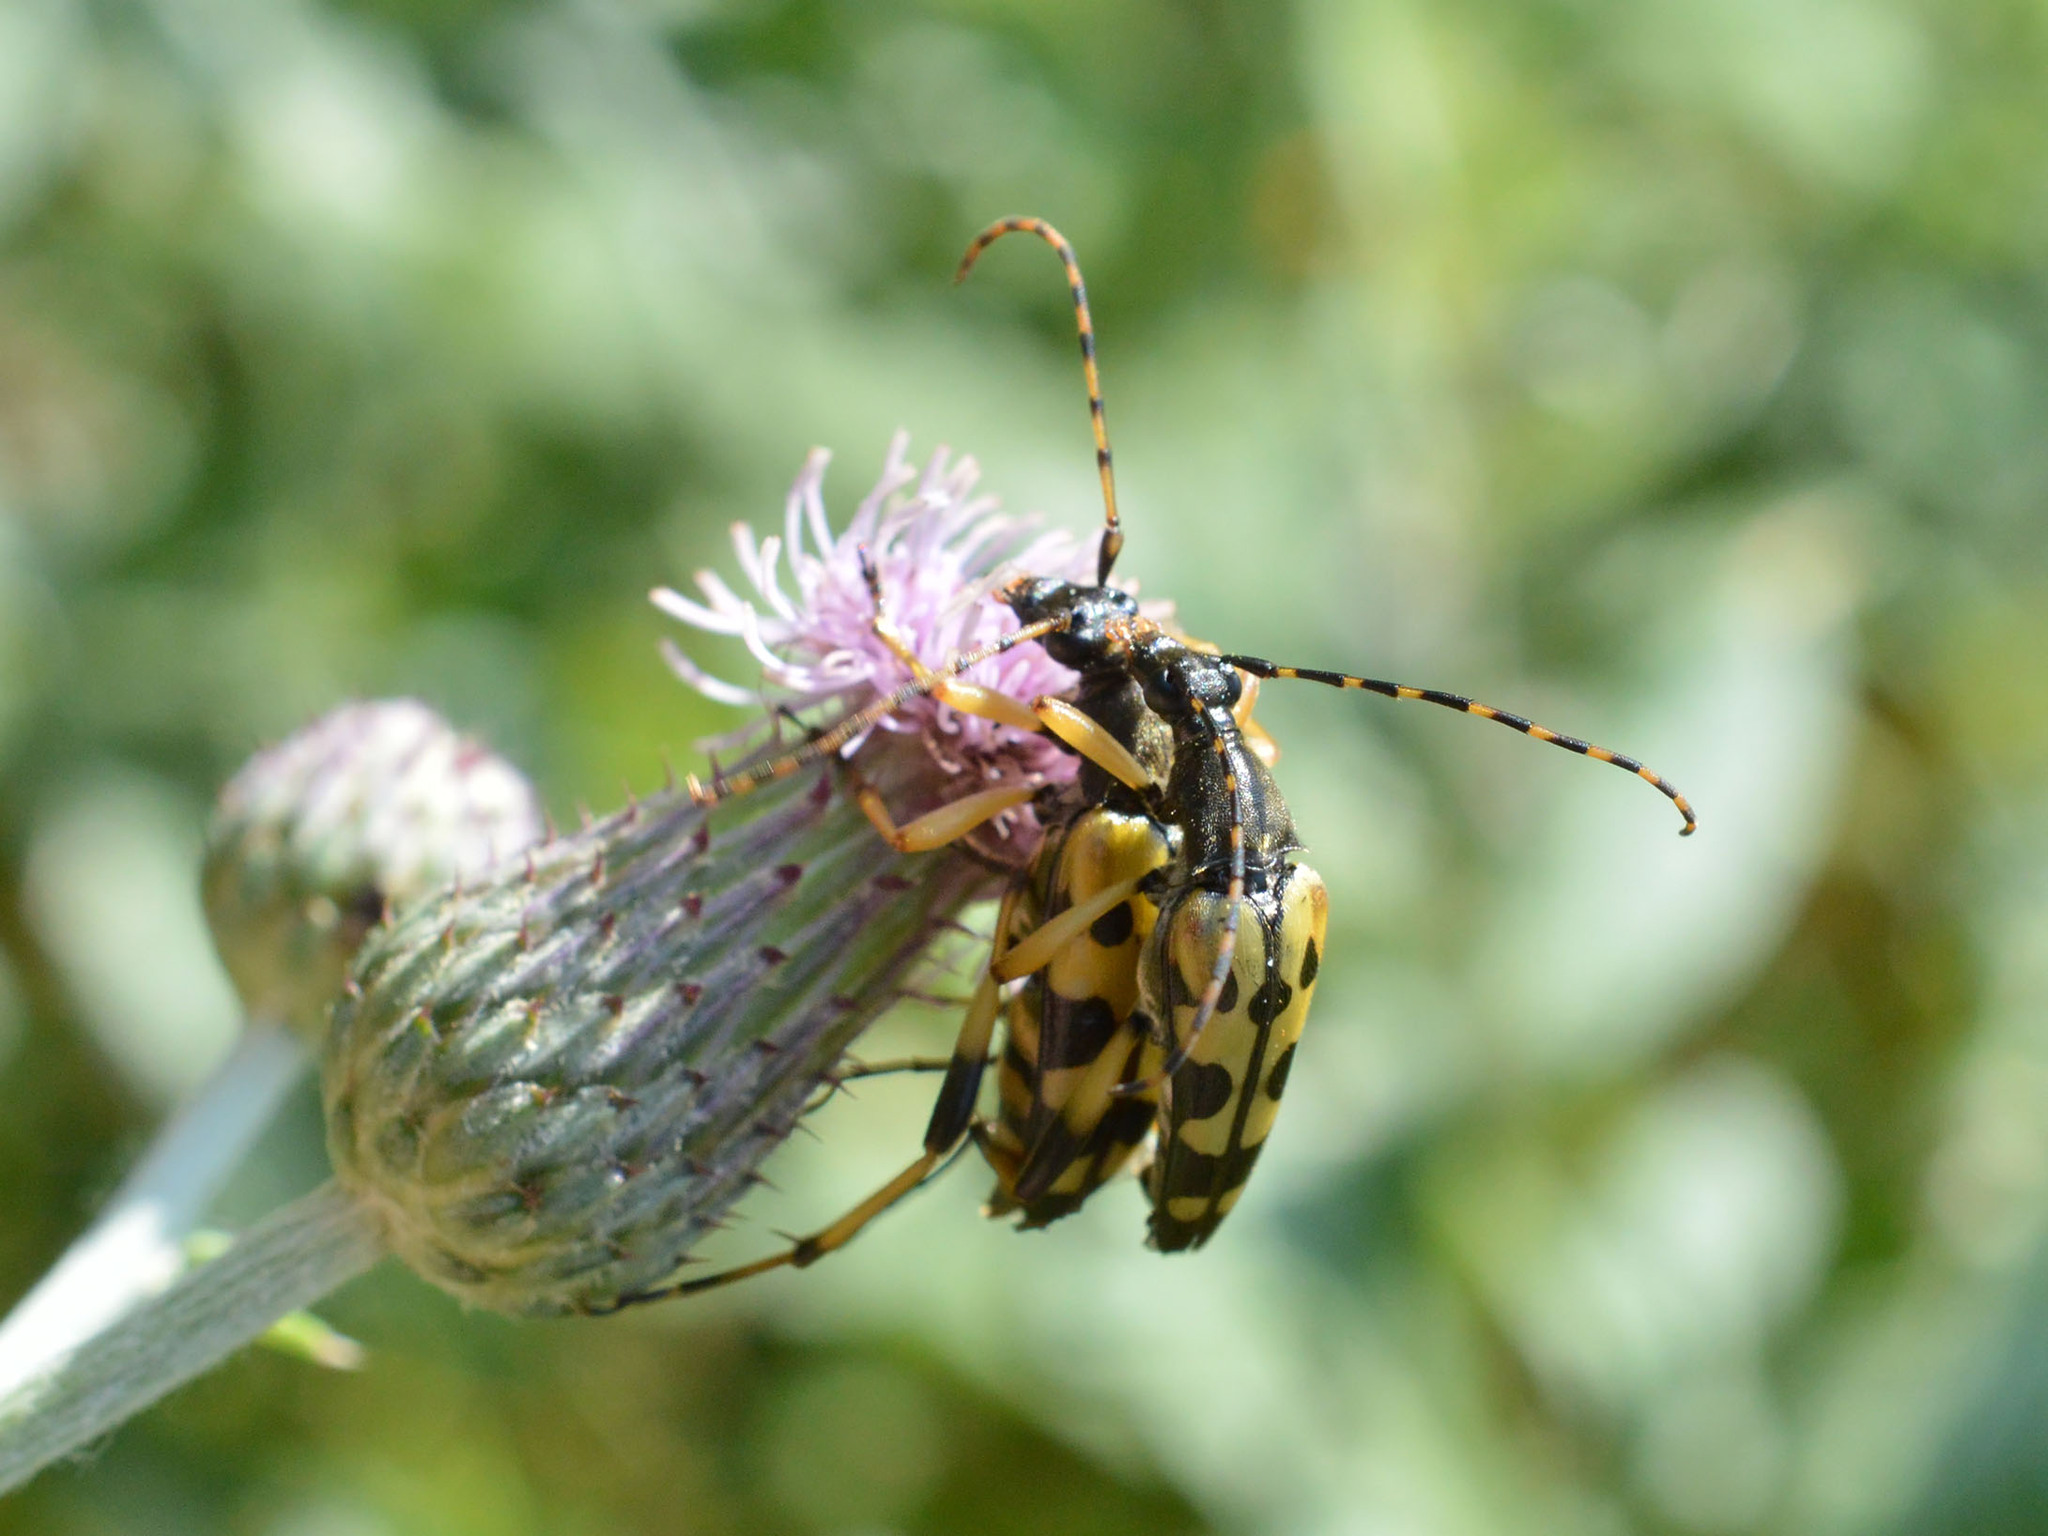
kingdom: Animalia
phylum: Arthropoda
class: Insecta
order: Coleoptera
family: Cerambycidae
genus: Rutpela
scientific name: Rutpela maculata
